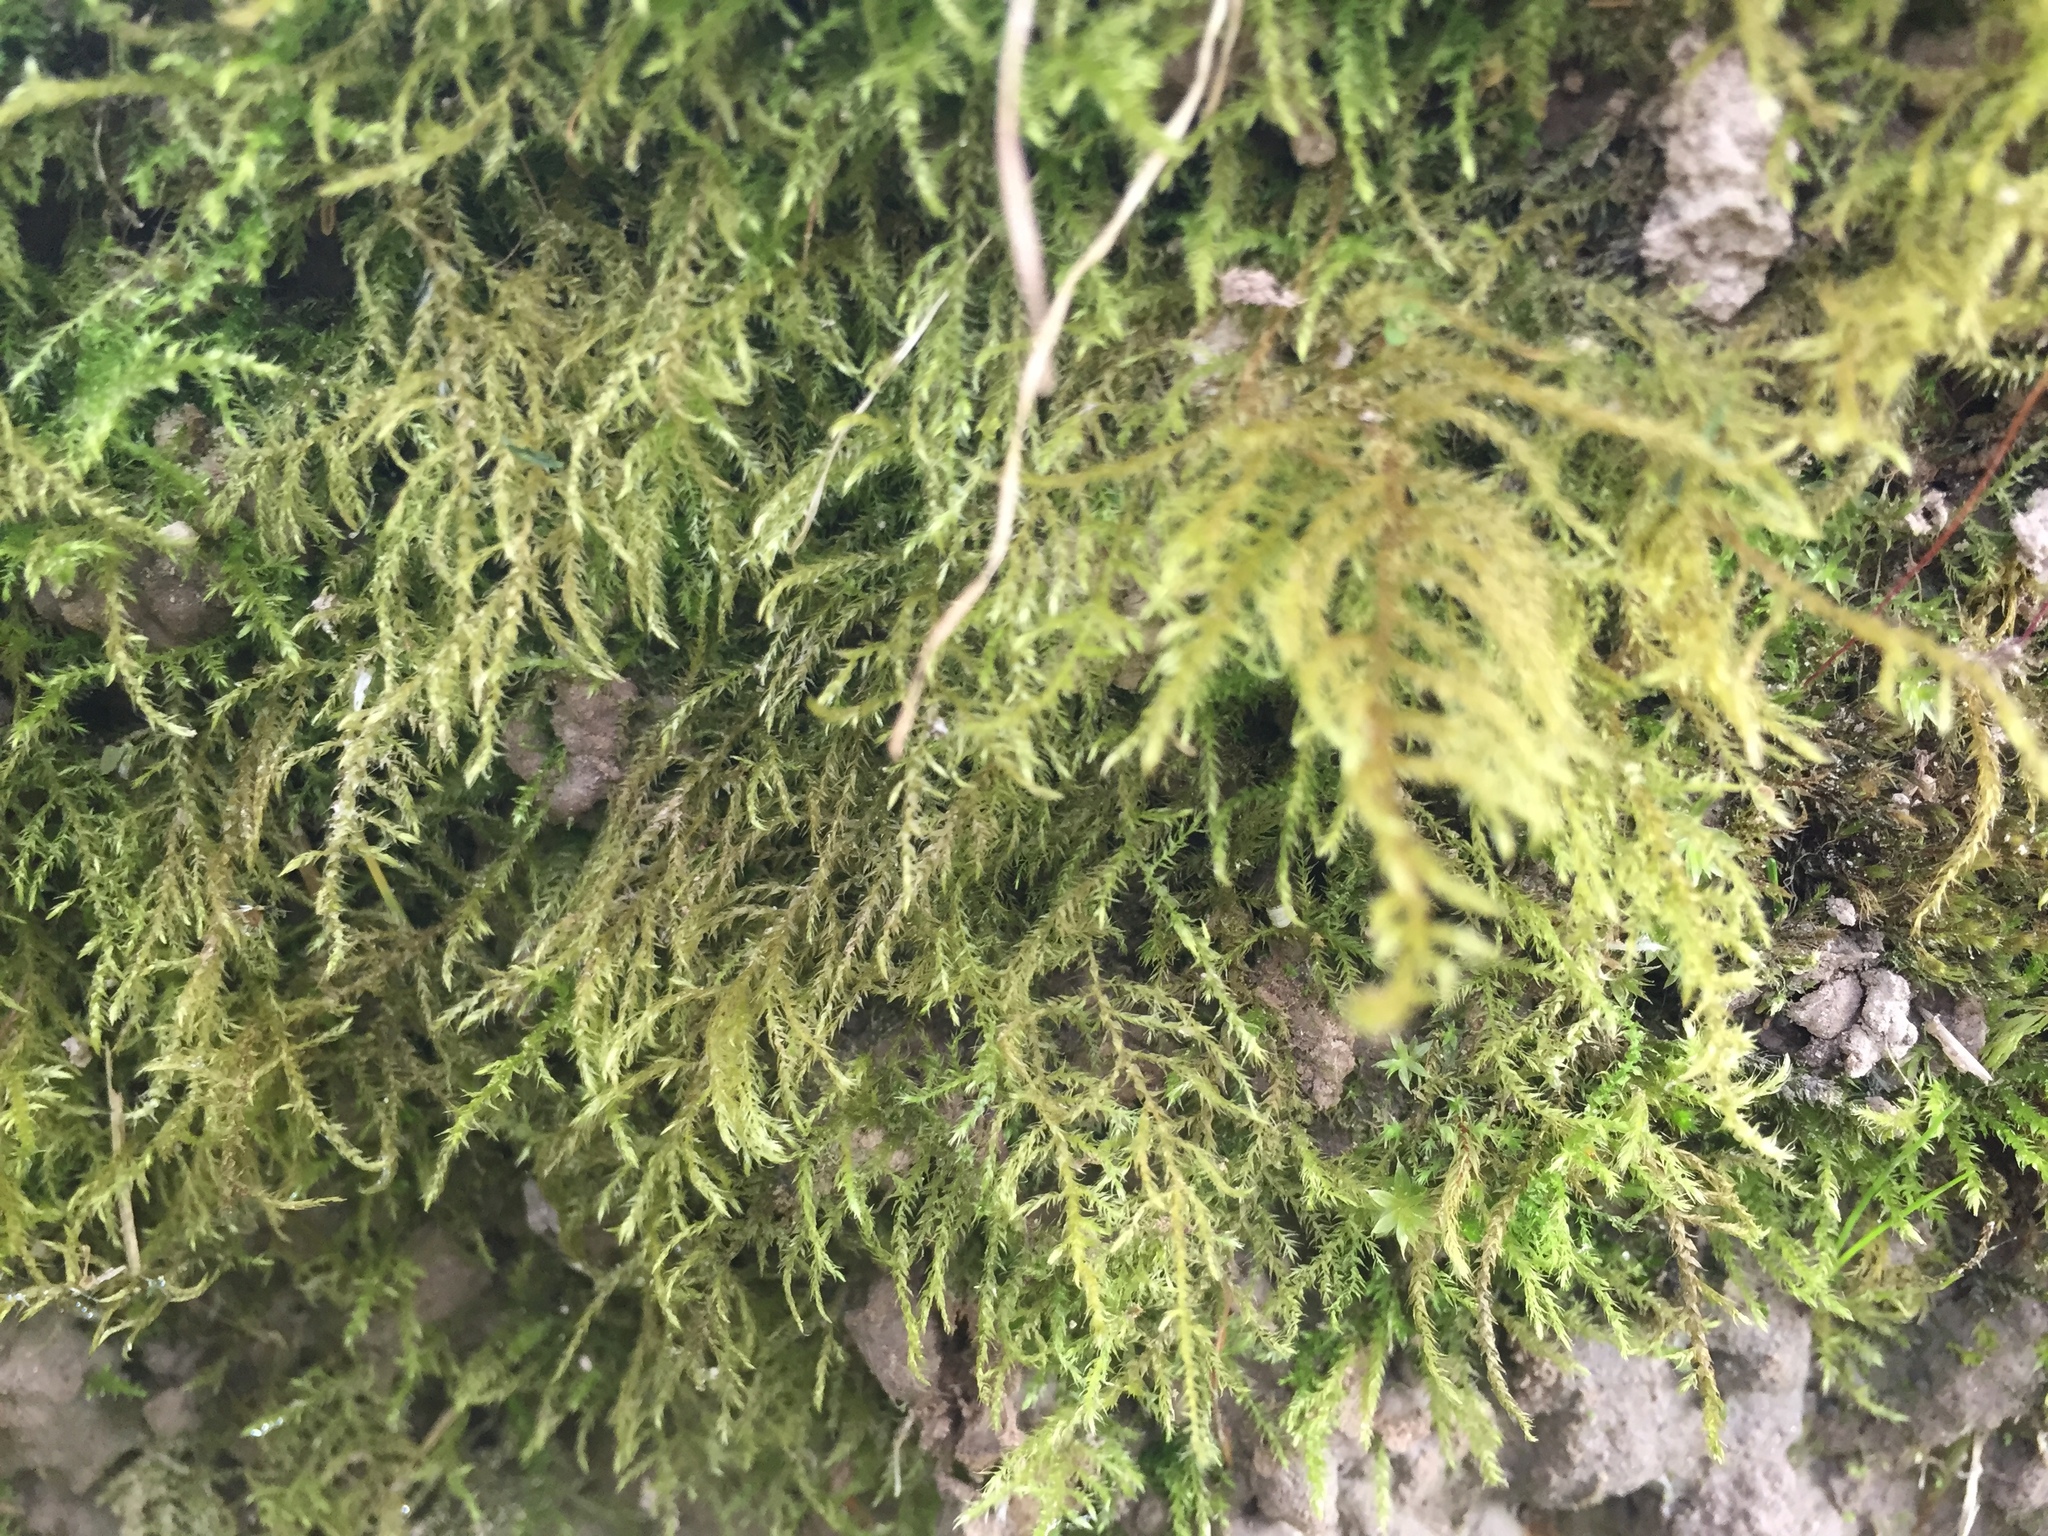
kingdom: Plantae
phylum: Bryophyta
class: Bryopsida
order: Hypnales
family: Brachytheciaceae
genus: Kindbergia
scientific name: Kindbergia praelonga
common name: Slender beaked moss
